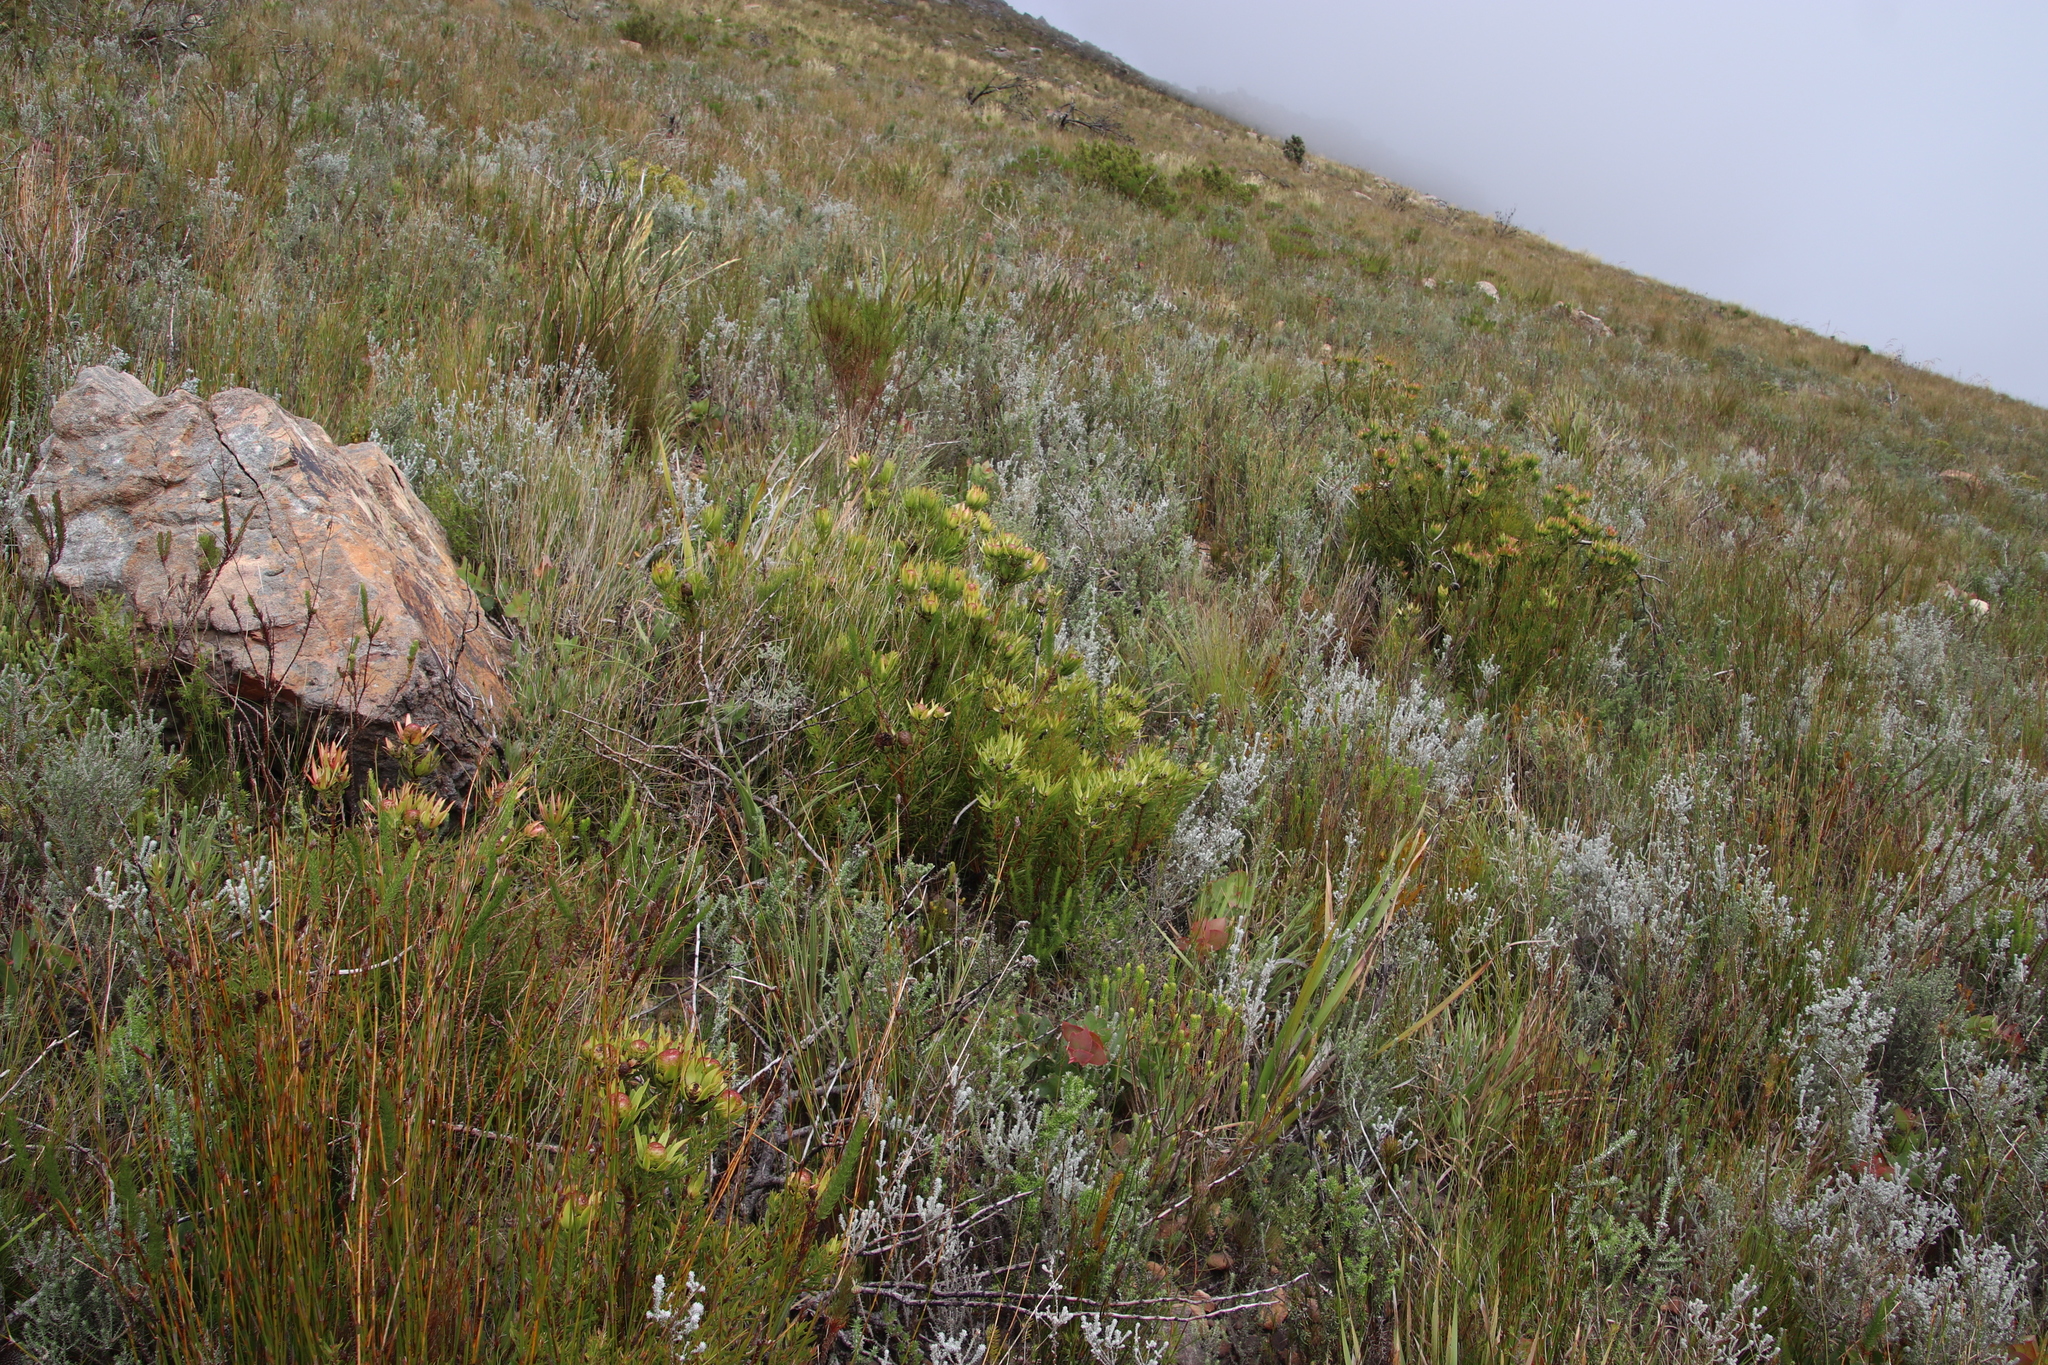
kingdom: Plantae
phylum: Tracheophyta
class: Magnoliopsida
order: Proteales
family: Proteaceae
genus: Leucadendron
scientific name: Leucadendron spissifolium
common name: Spear-leaf conebush
